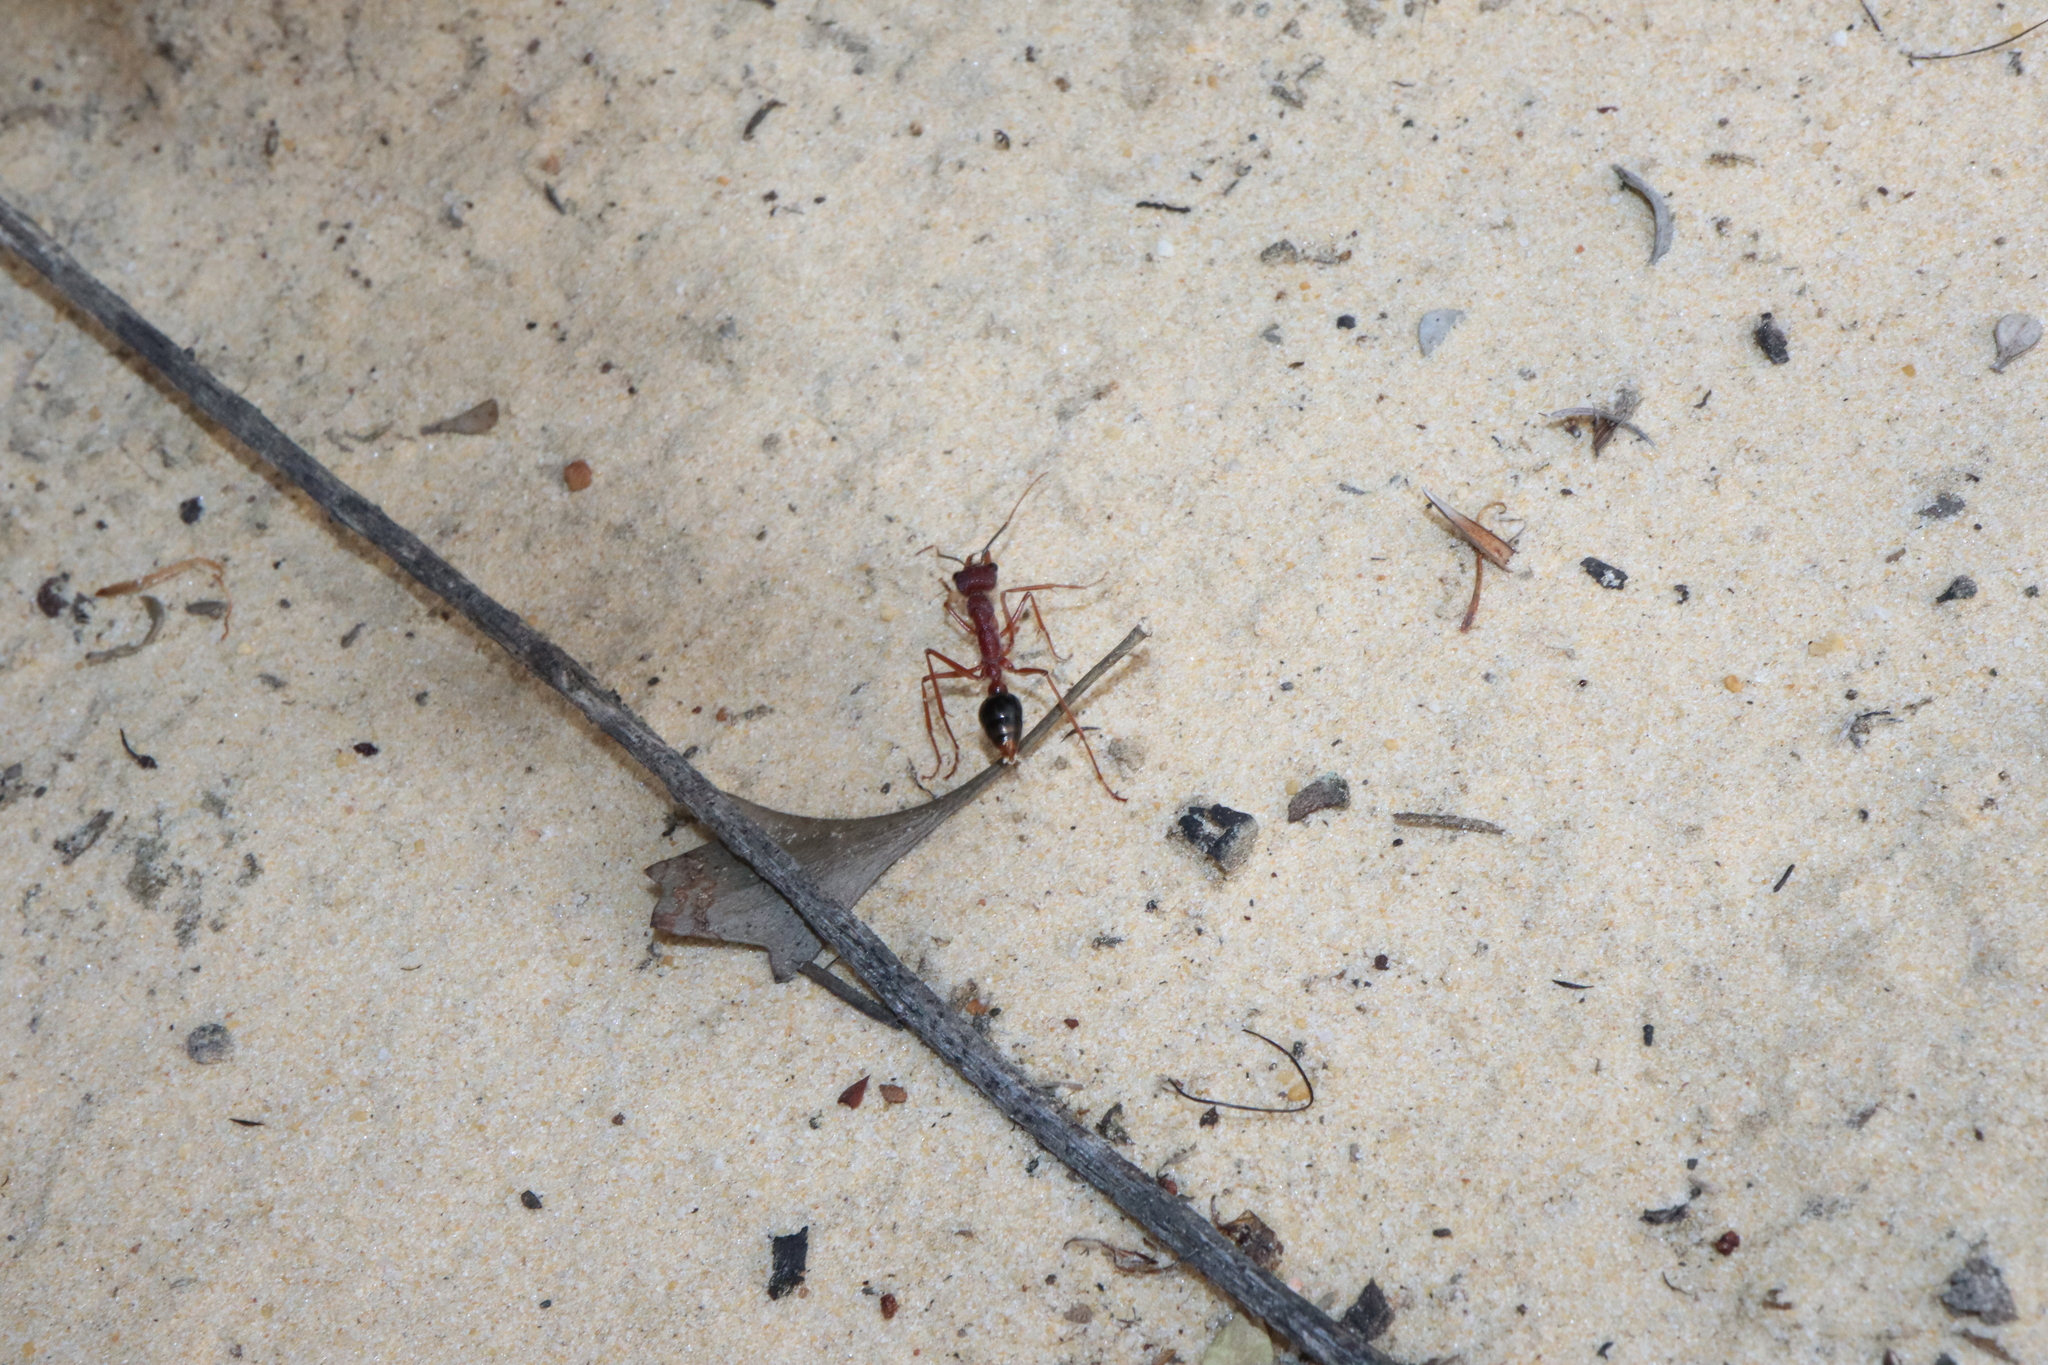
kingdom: Animalia
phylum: Arthropoda
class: Insecta
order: Hymenoptera
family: Formicidae
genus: Myrmecia
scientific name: Myrmecia analis
